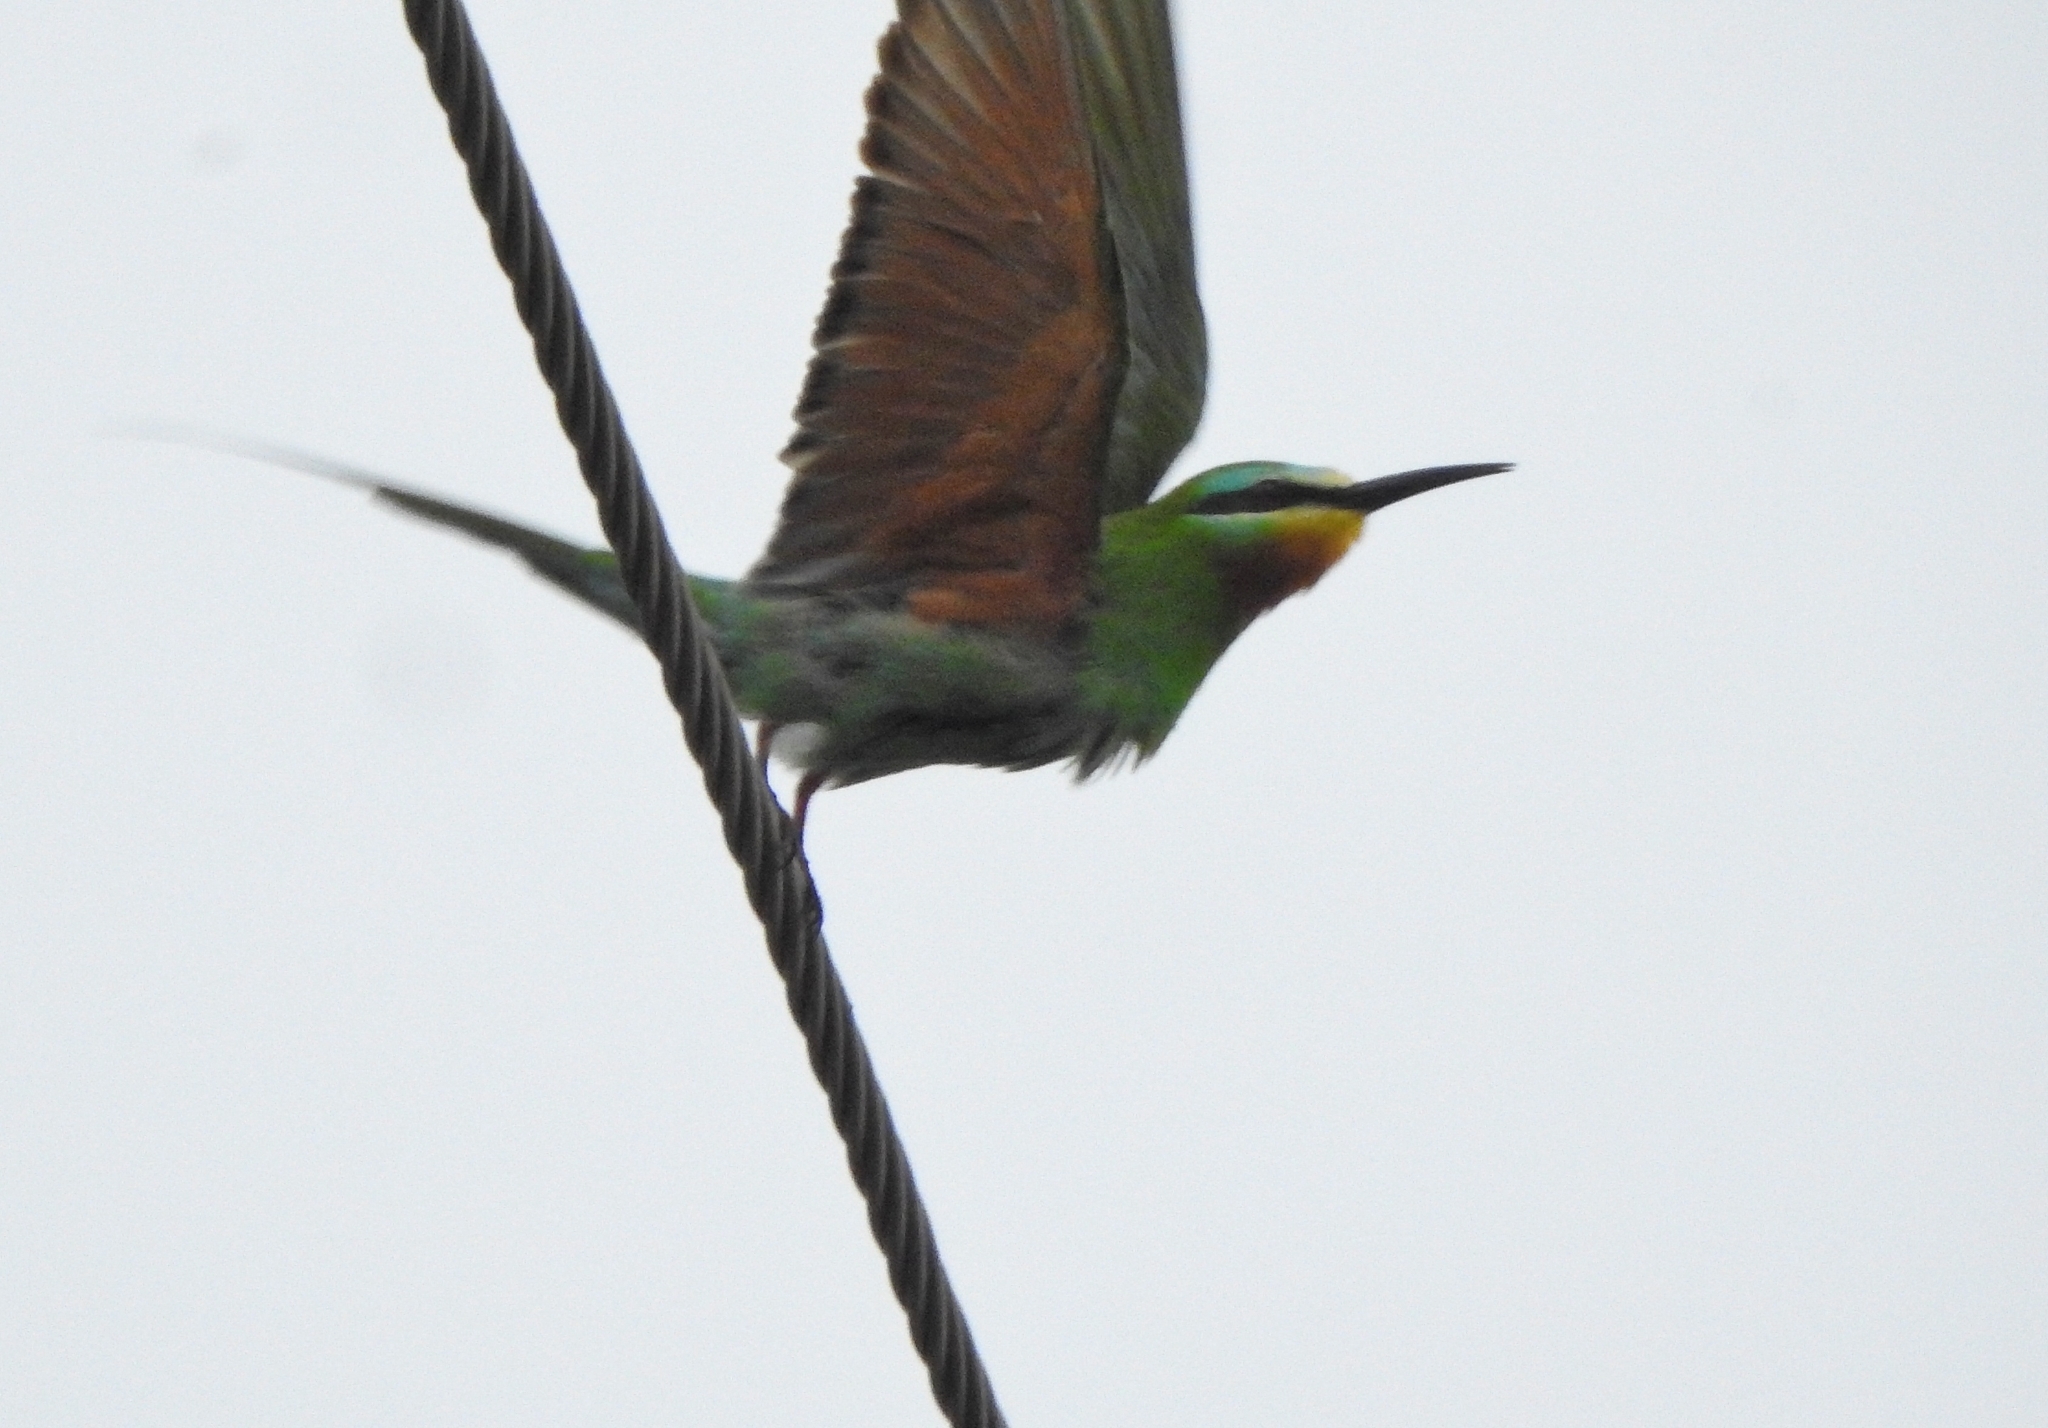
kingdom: Animalia
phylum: Chordata
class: Aves
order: Coraciiformes
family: Meropidae
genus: Merops
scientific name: Merops persicus
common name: Blue-cheeked bee-eater
